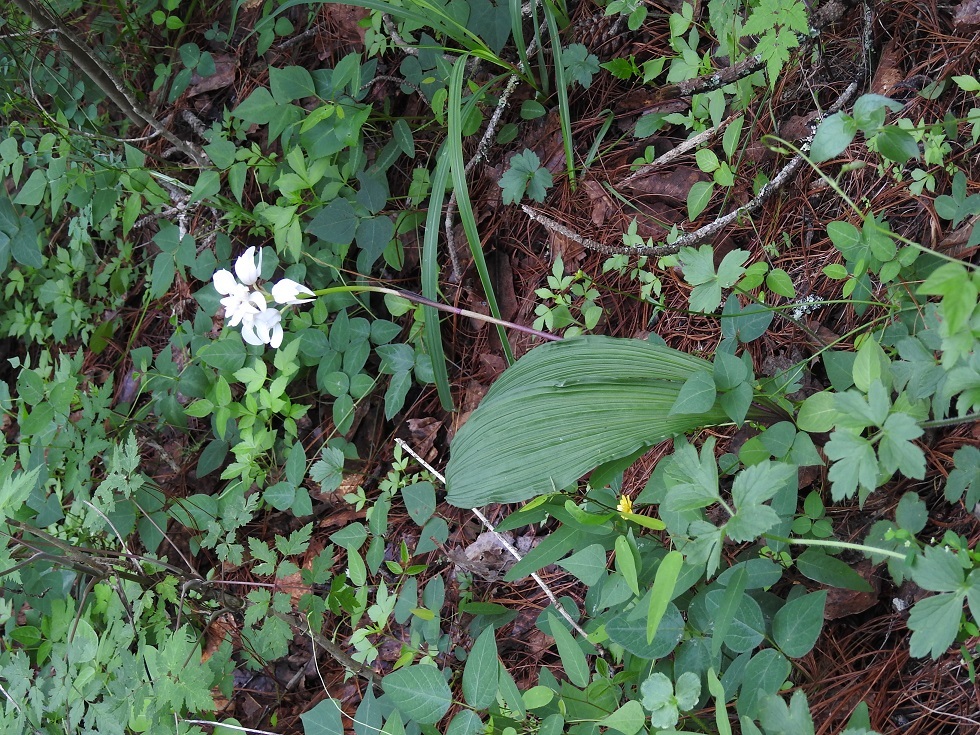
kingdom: Plantae
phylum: Tracheophyta
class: Liliopsida
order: Asparagales
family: Orchidaceae
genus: Govenia
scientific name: Govenia liliacea
